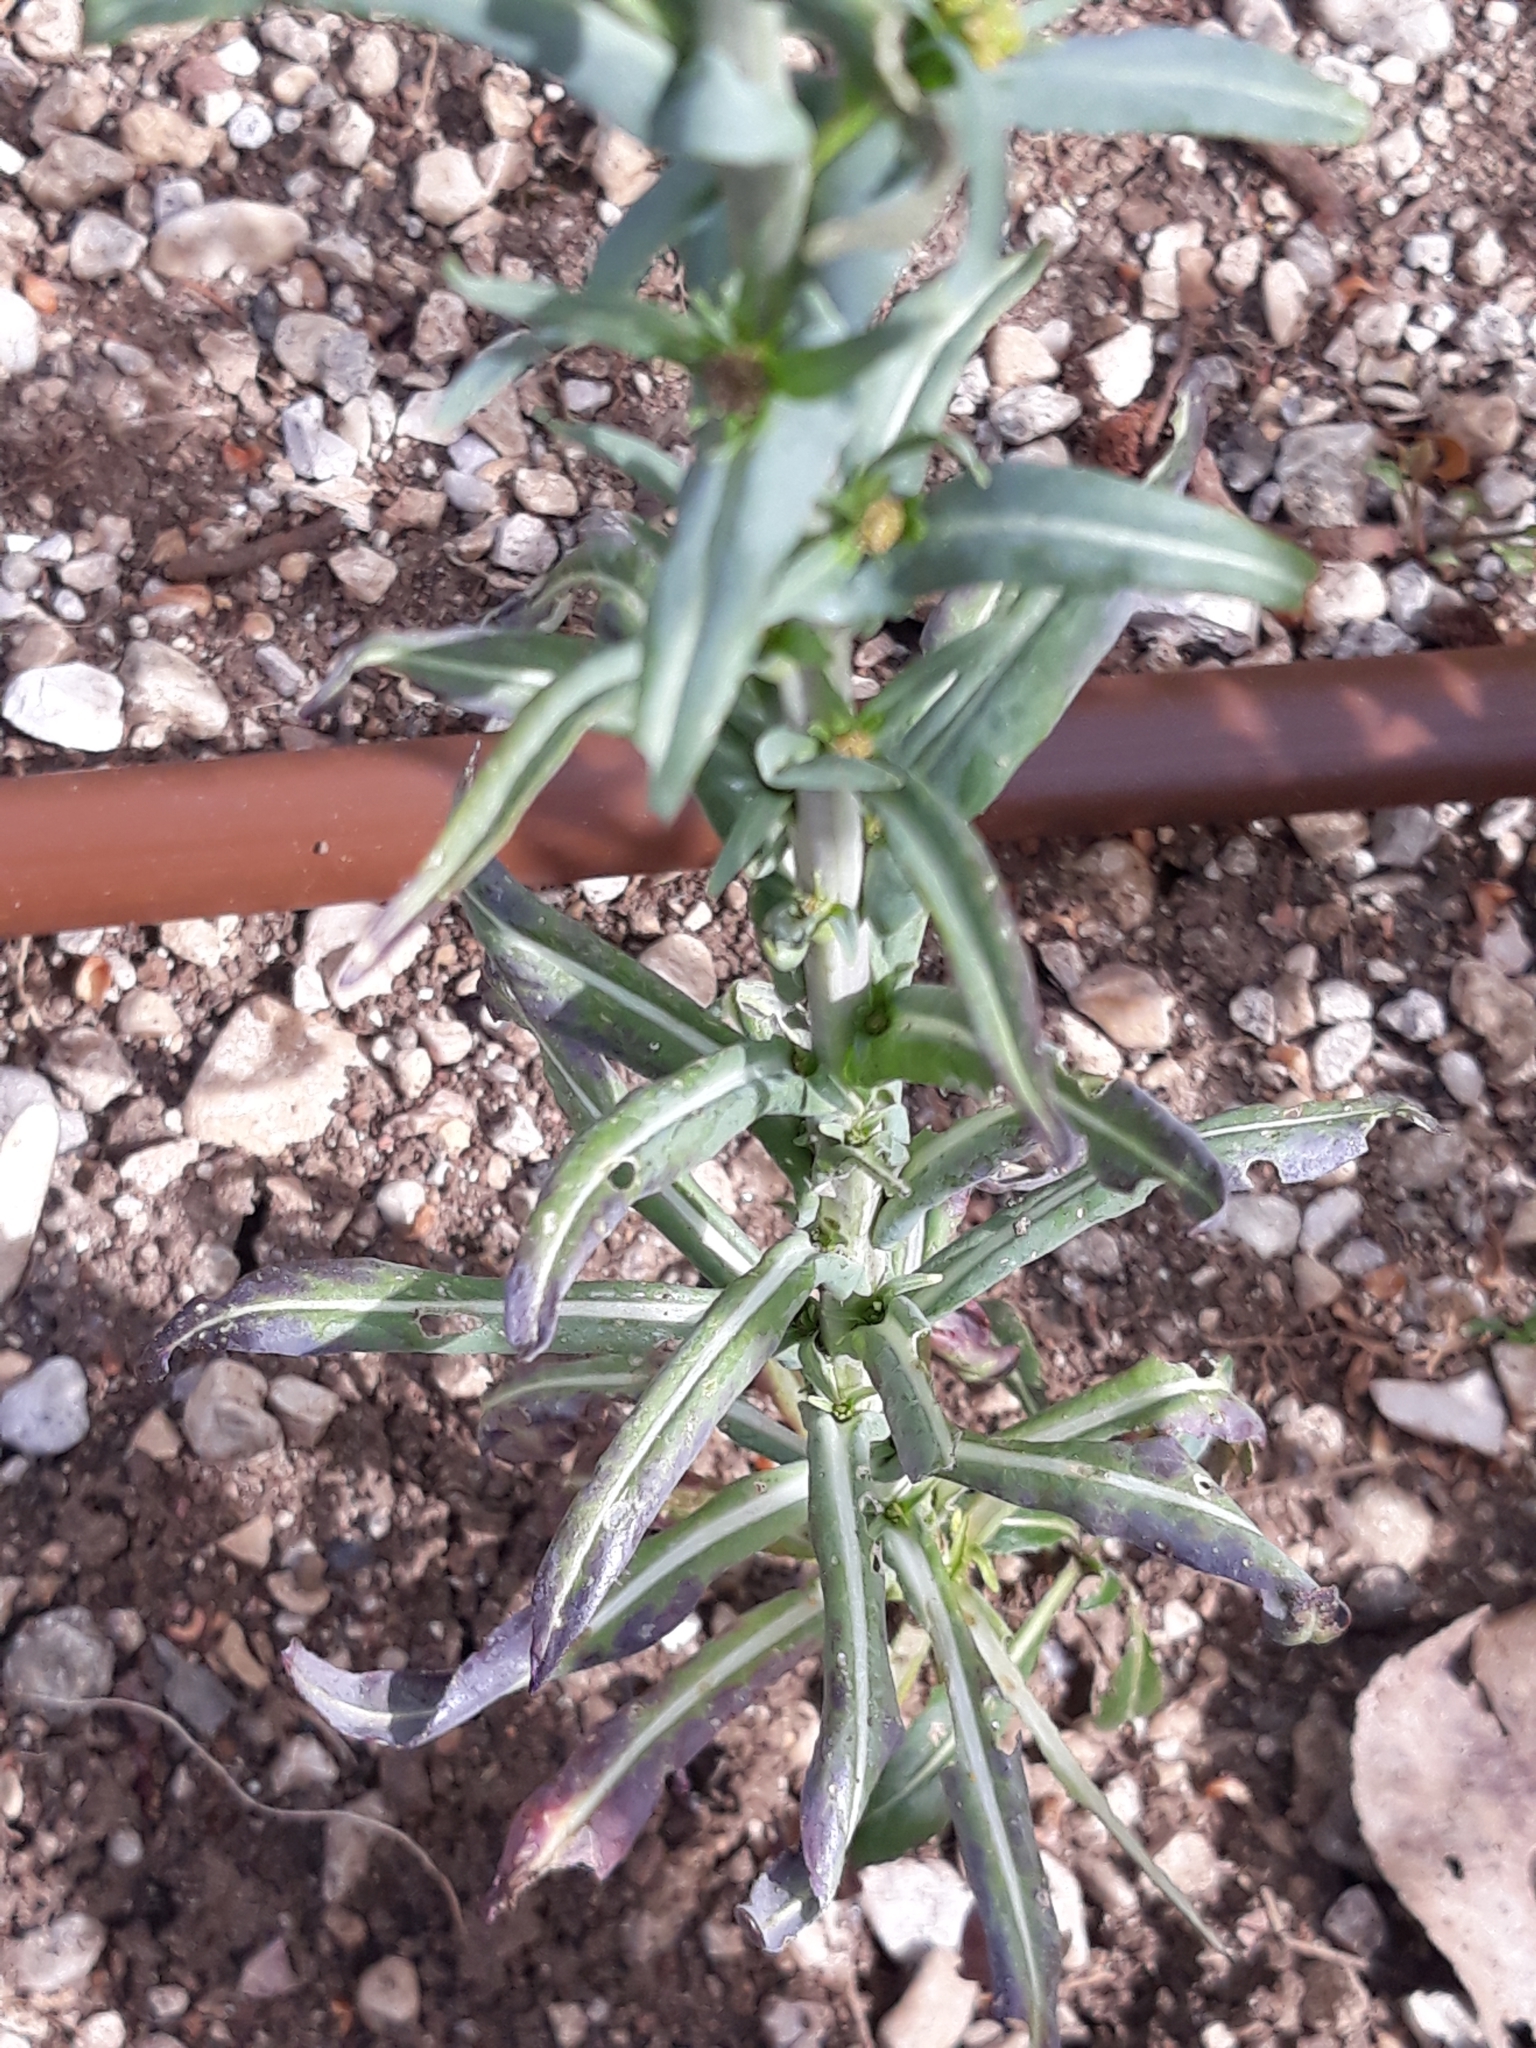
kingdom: Plantae
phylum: Tracheophyta
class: Magnoliopsida
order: Brassicales
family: Brassicaceae
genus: Isatis
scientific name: Isatis tinctoria
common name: Woad
